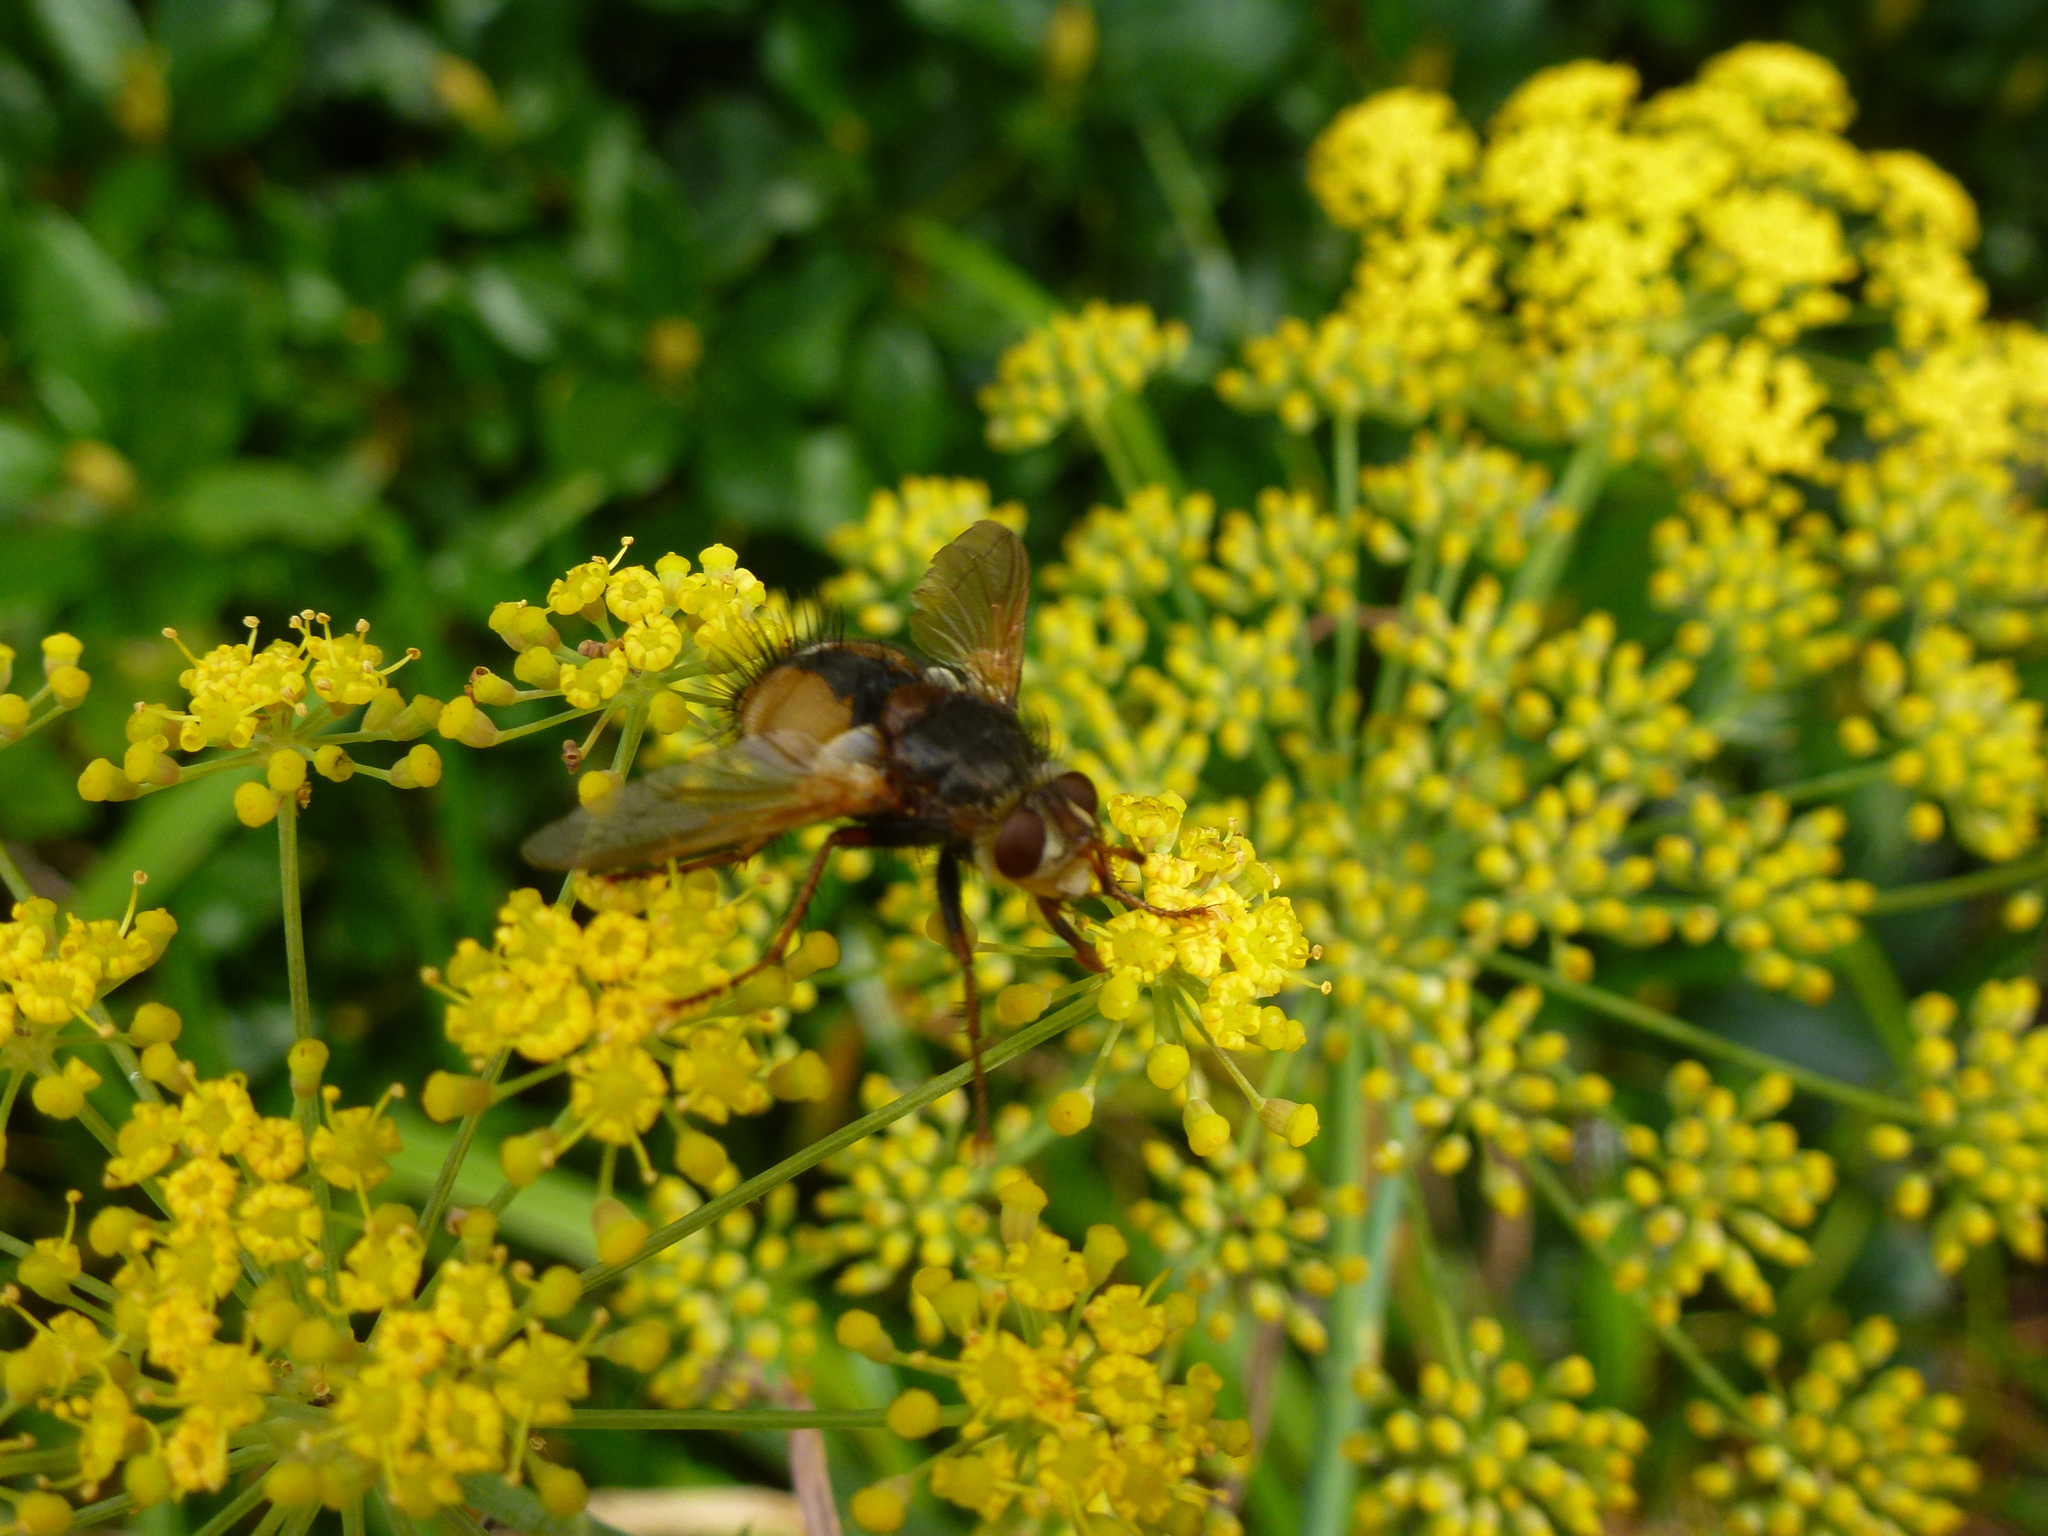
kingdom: Animalia
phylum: Arthropoda
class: Insecta
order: Diptera
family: Tachinidae
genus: Tachina
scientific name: Tachina fera
